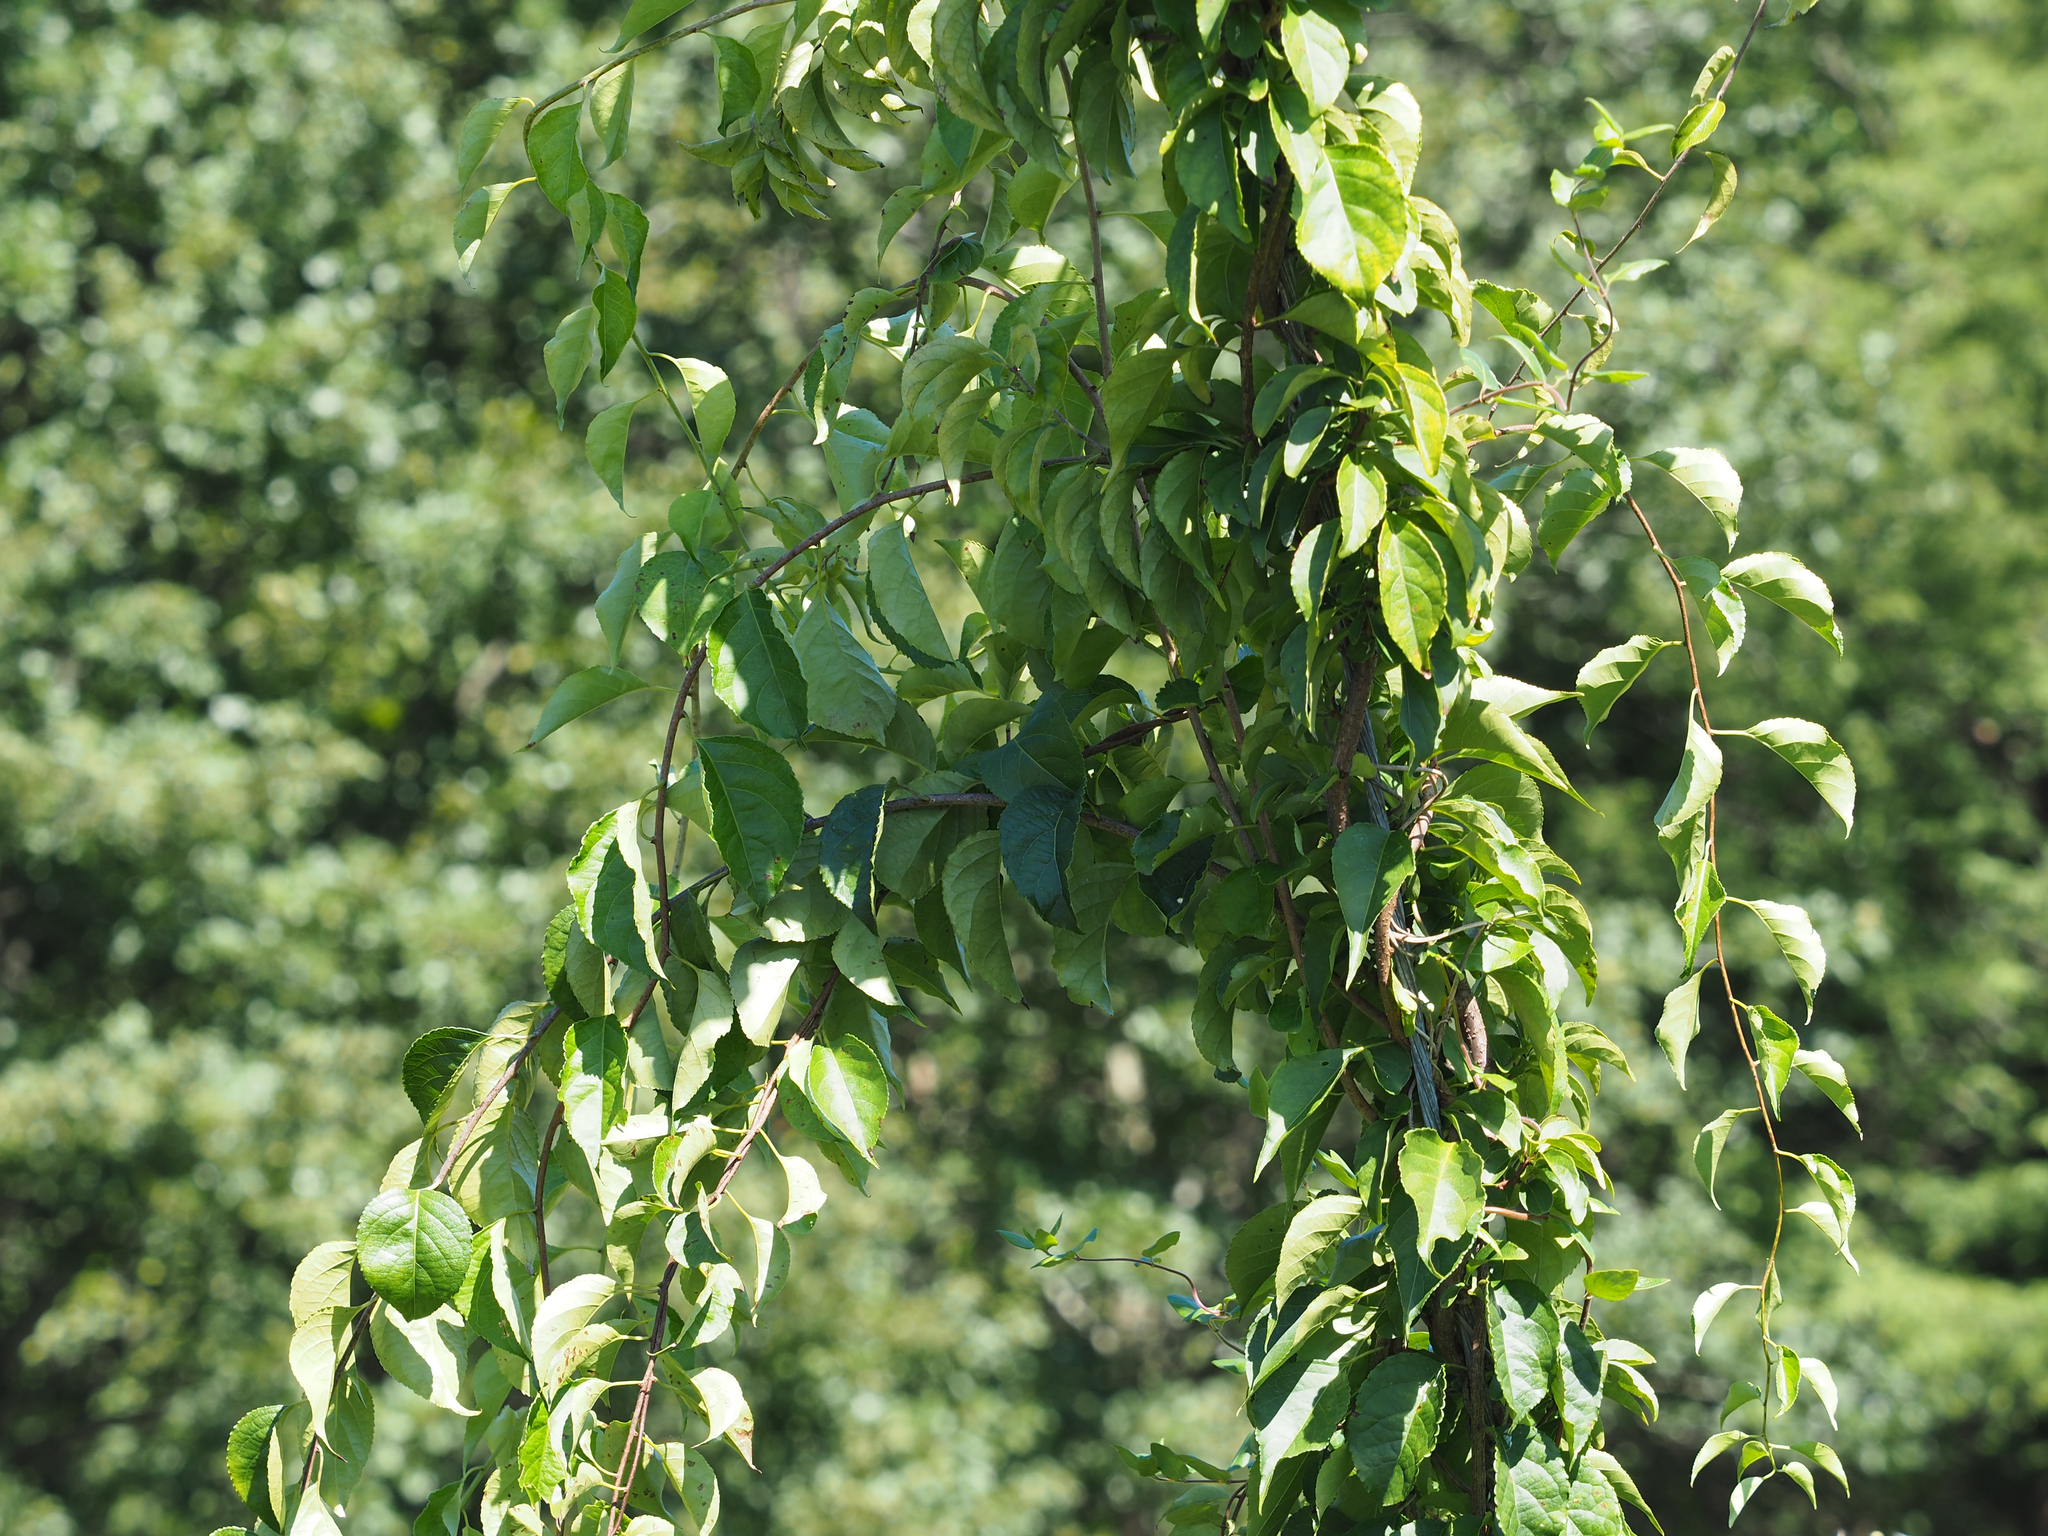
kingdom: Plantae
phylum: Tracheophyta
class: Magnoliopsida
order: Celastrales
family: Celastraceae
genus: Celastrus
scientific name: Celastrus orbiculatus
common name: Oriental bittersweet
